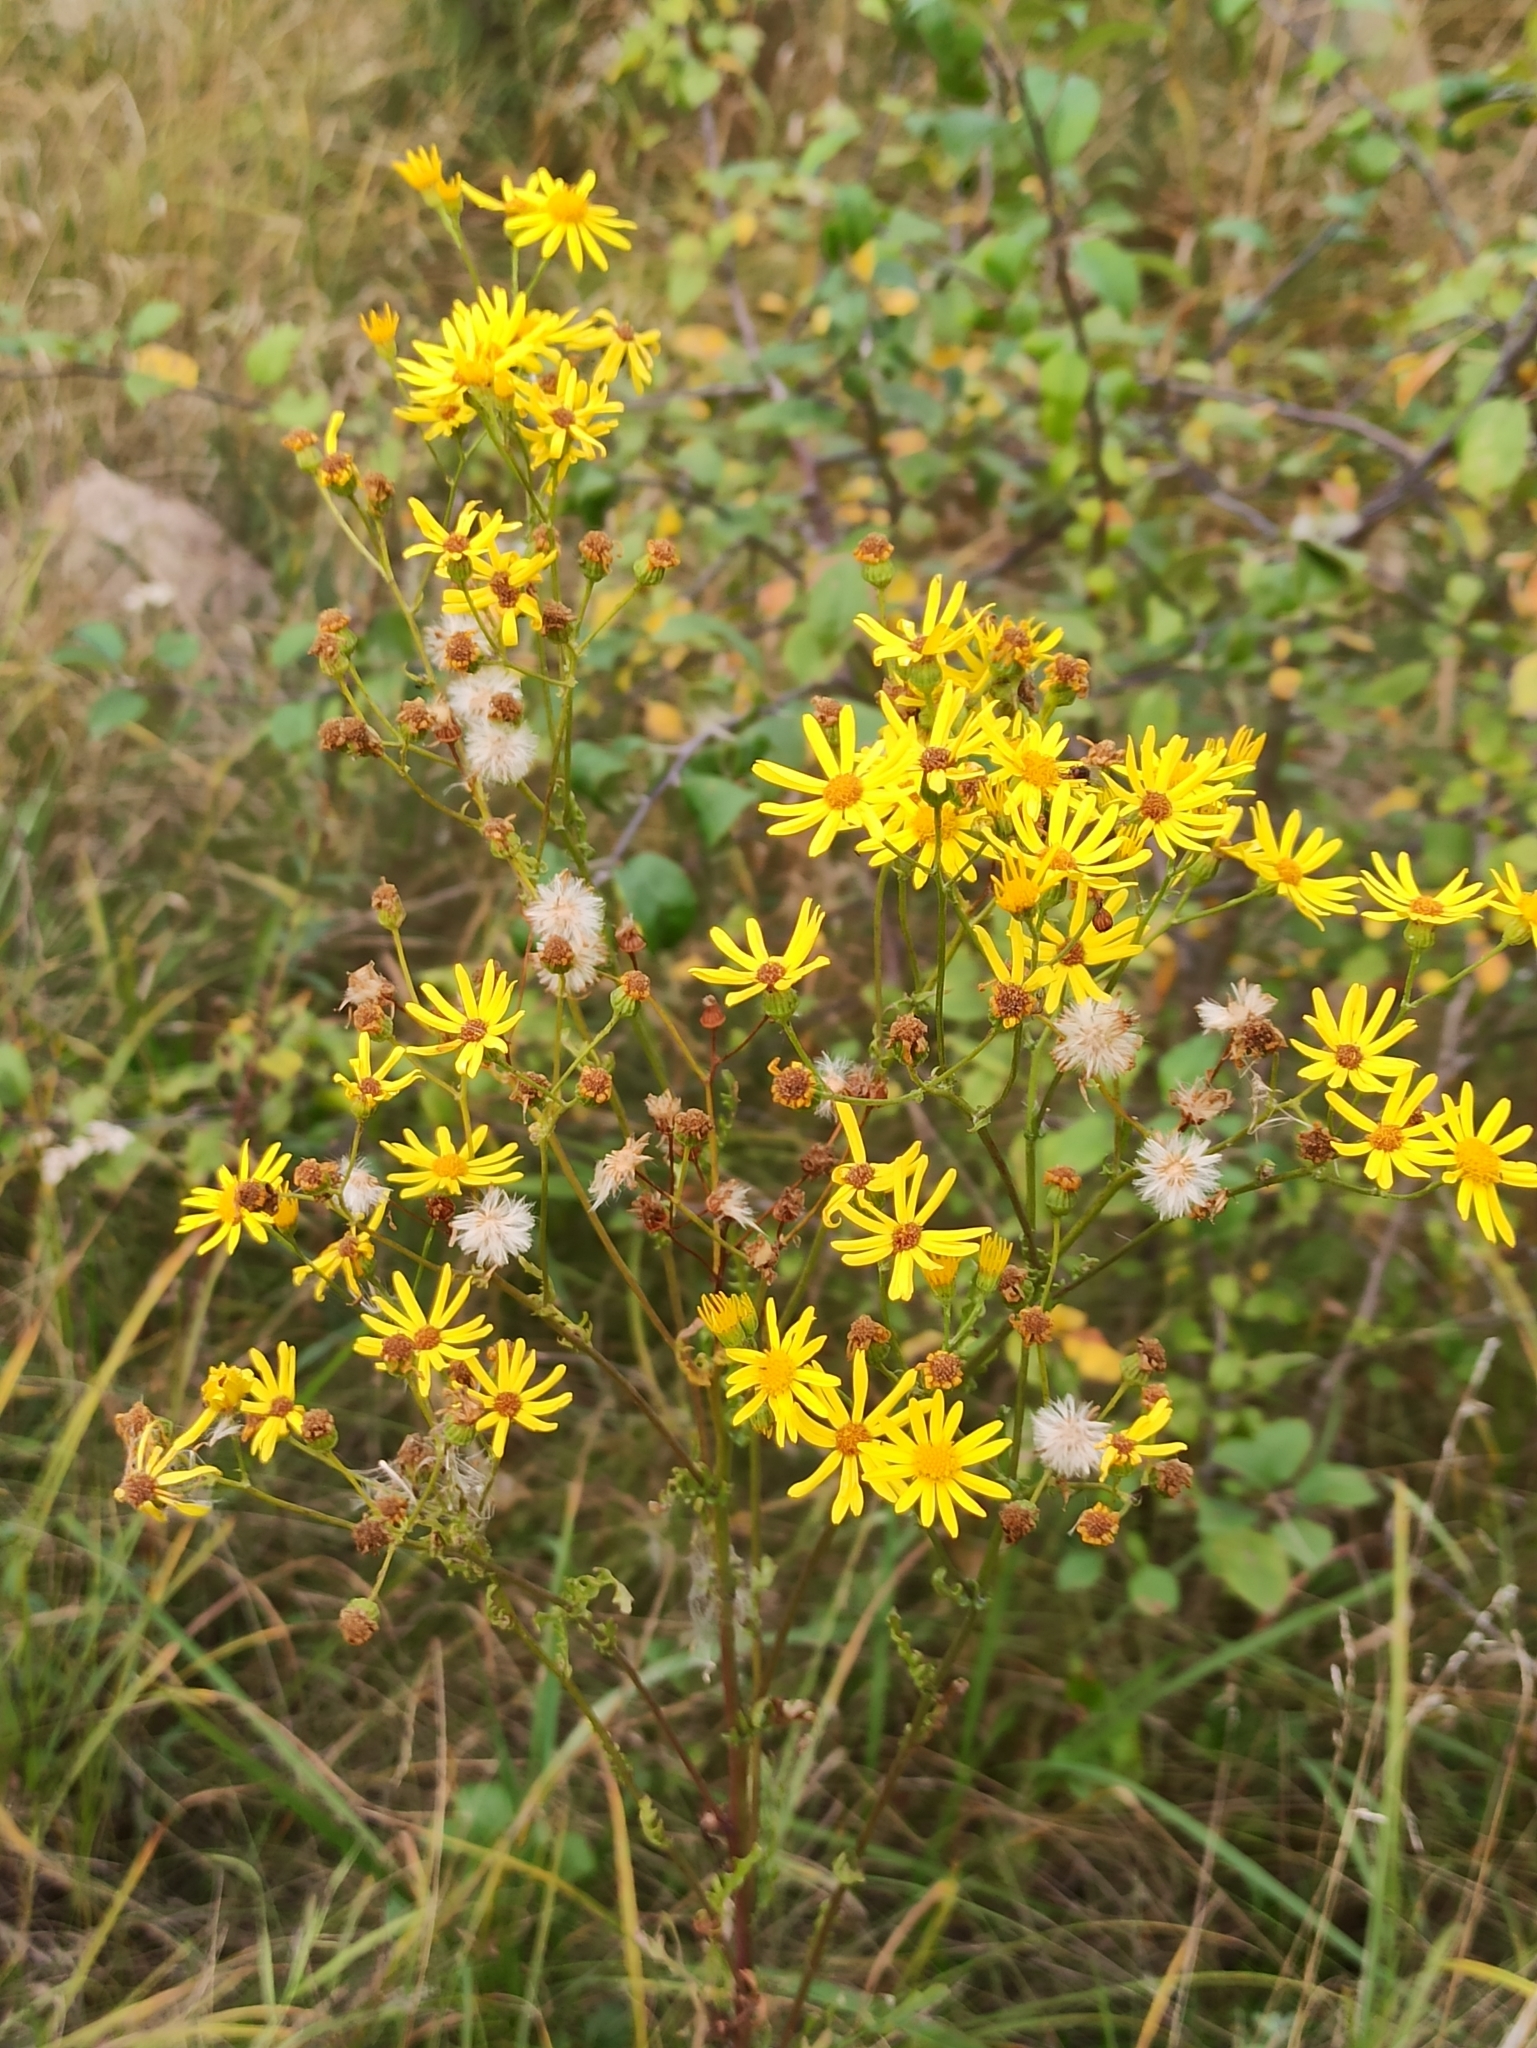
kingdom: Plantae
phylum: Tracheophyta
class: Magnoliopsida
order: Asterales
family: Asteraceae
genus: Jacobaea
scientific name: Jacobaea vulgaris
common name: Stinking willie
